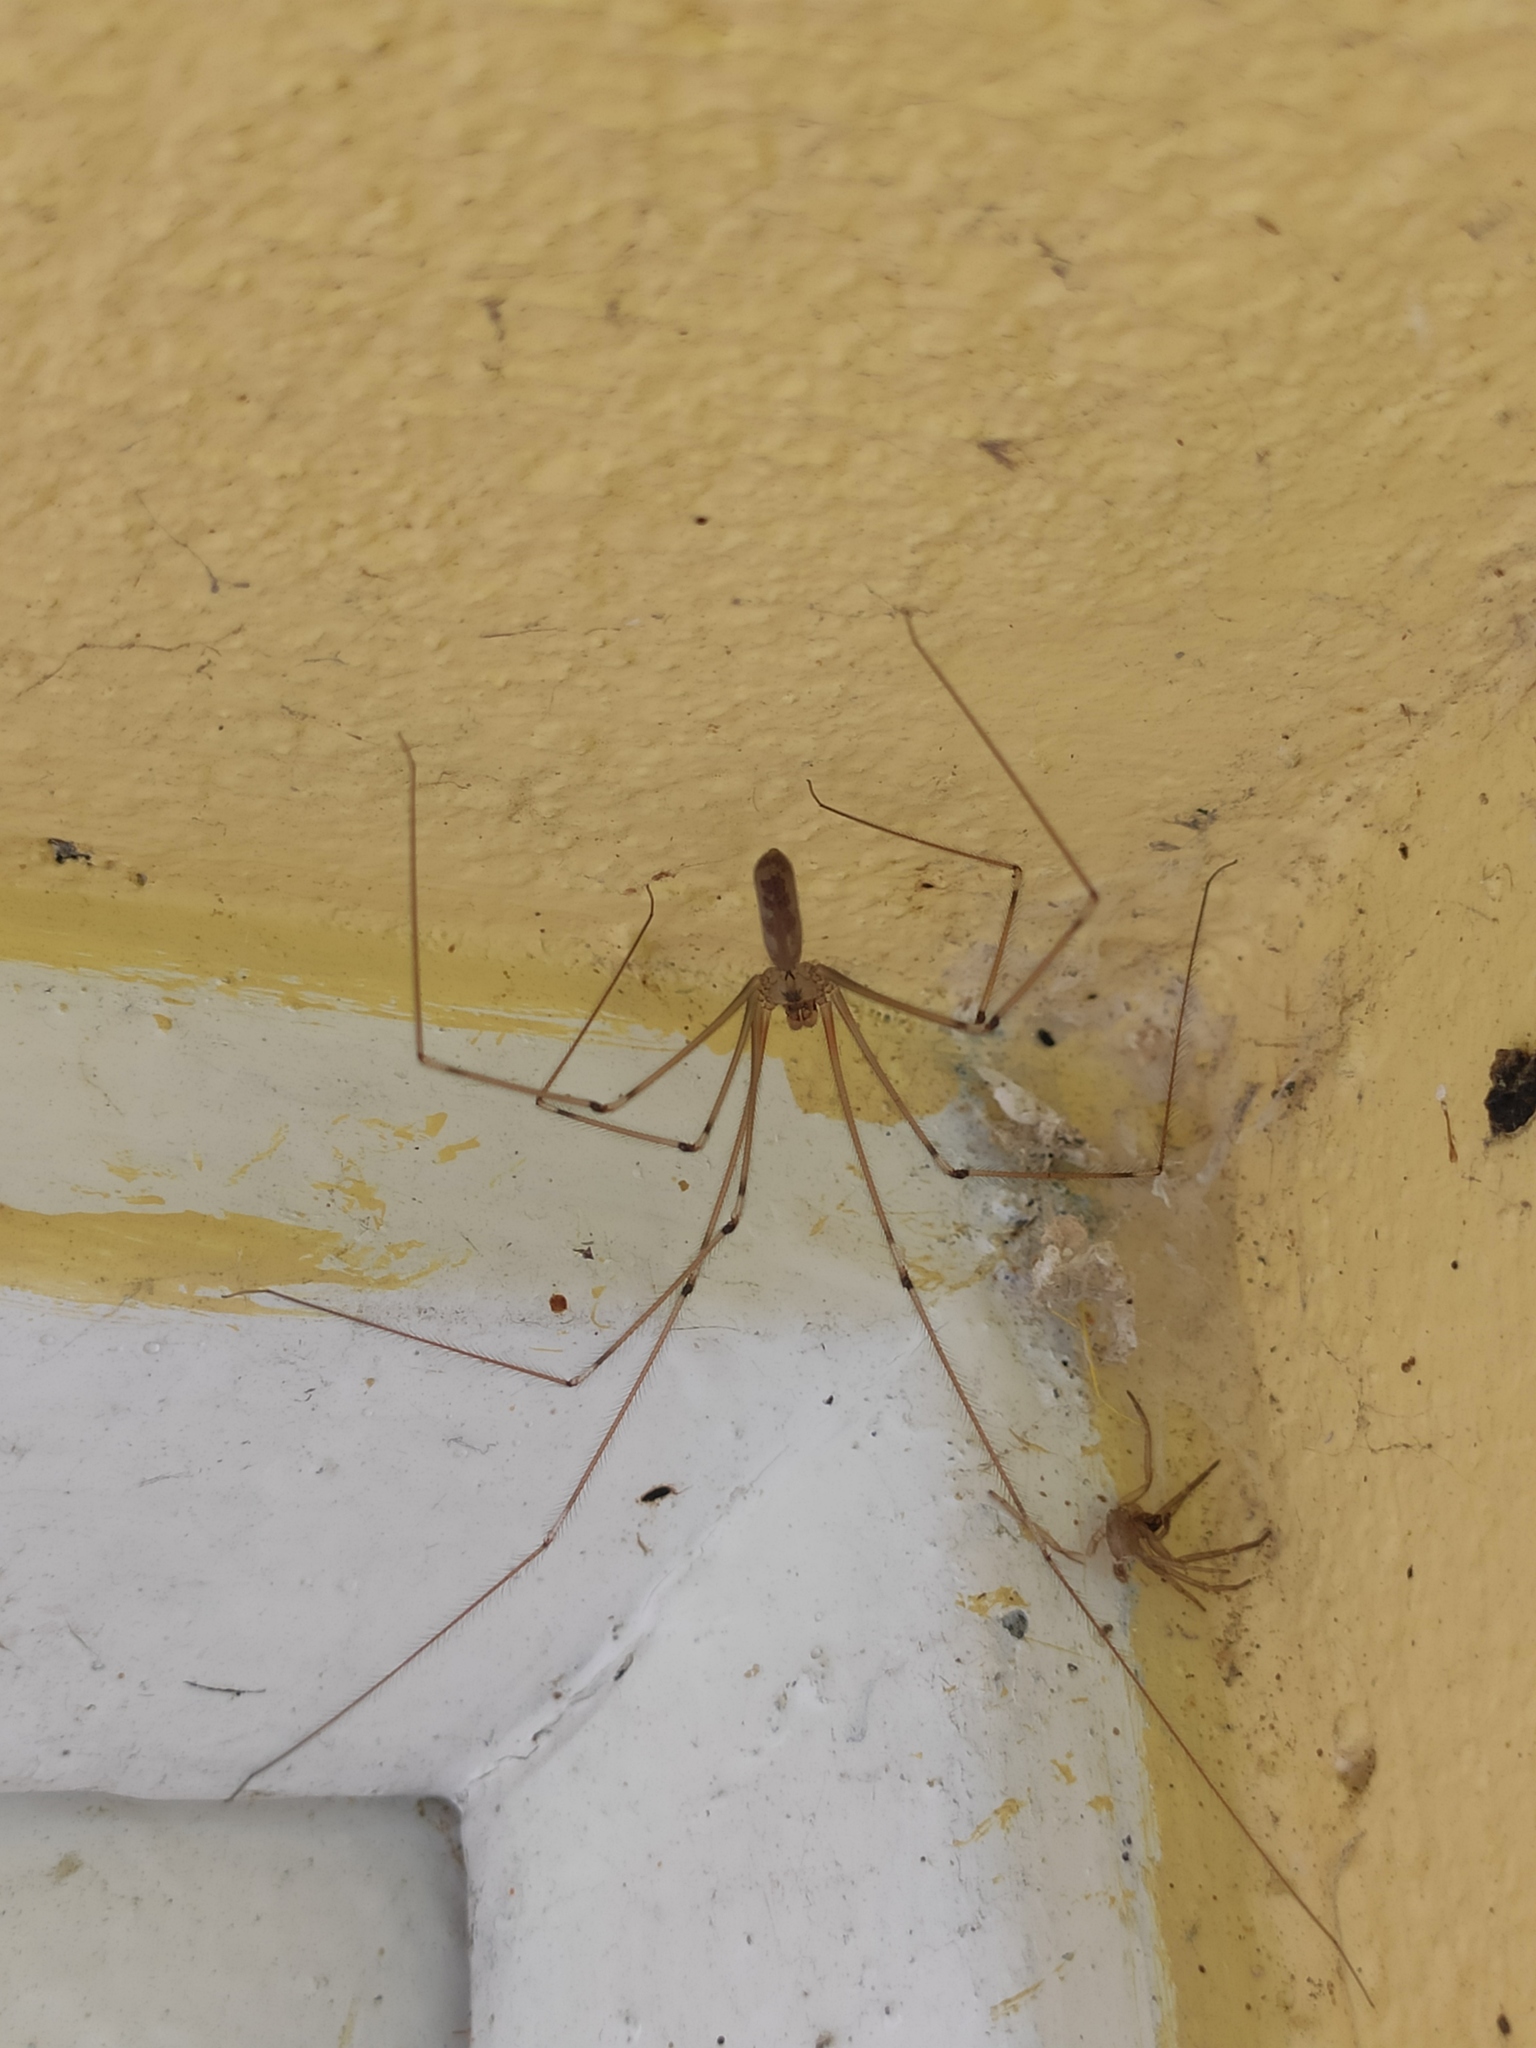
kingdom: Animalia
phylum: Arthropoda
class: Arachnida
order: Araneae
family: Pholcidae
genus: Pholcus
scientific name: Pholcus phalangioides
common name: Longbodied cellar spider
